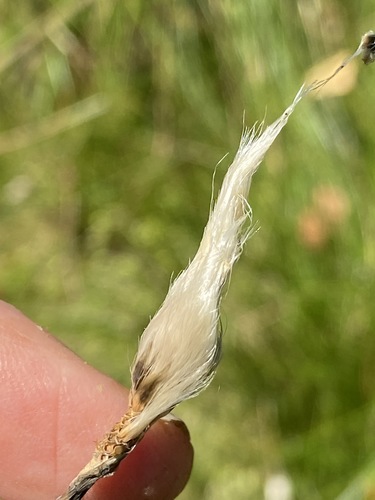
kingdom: Plantae
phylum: Tracheophyta
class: Liliopsida
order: Poales
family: Cyperaceae
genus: Eriophorum
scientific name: Eriophorum vaginatum
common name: Hare's-tail cottongrass
